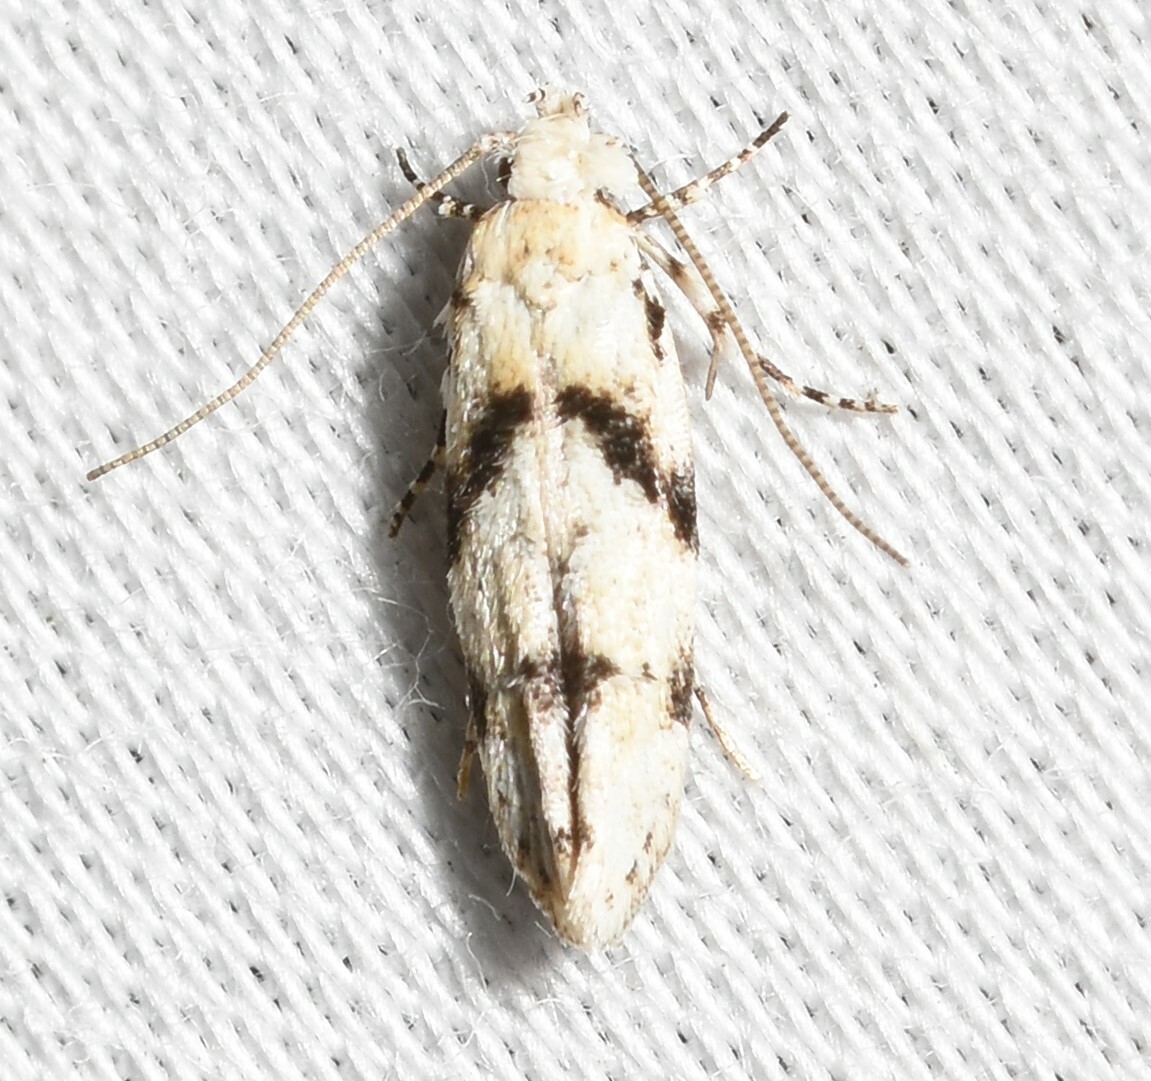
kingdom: Animalia
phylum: Arthropoda
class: Insecta
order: Lepidoptera
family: Gelechiidae
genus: Arogalea
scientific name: Arogalea cristifasciella
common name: White stripe-backed moth
